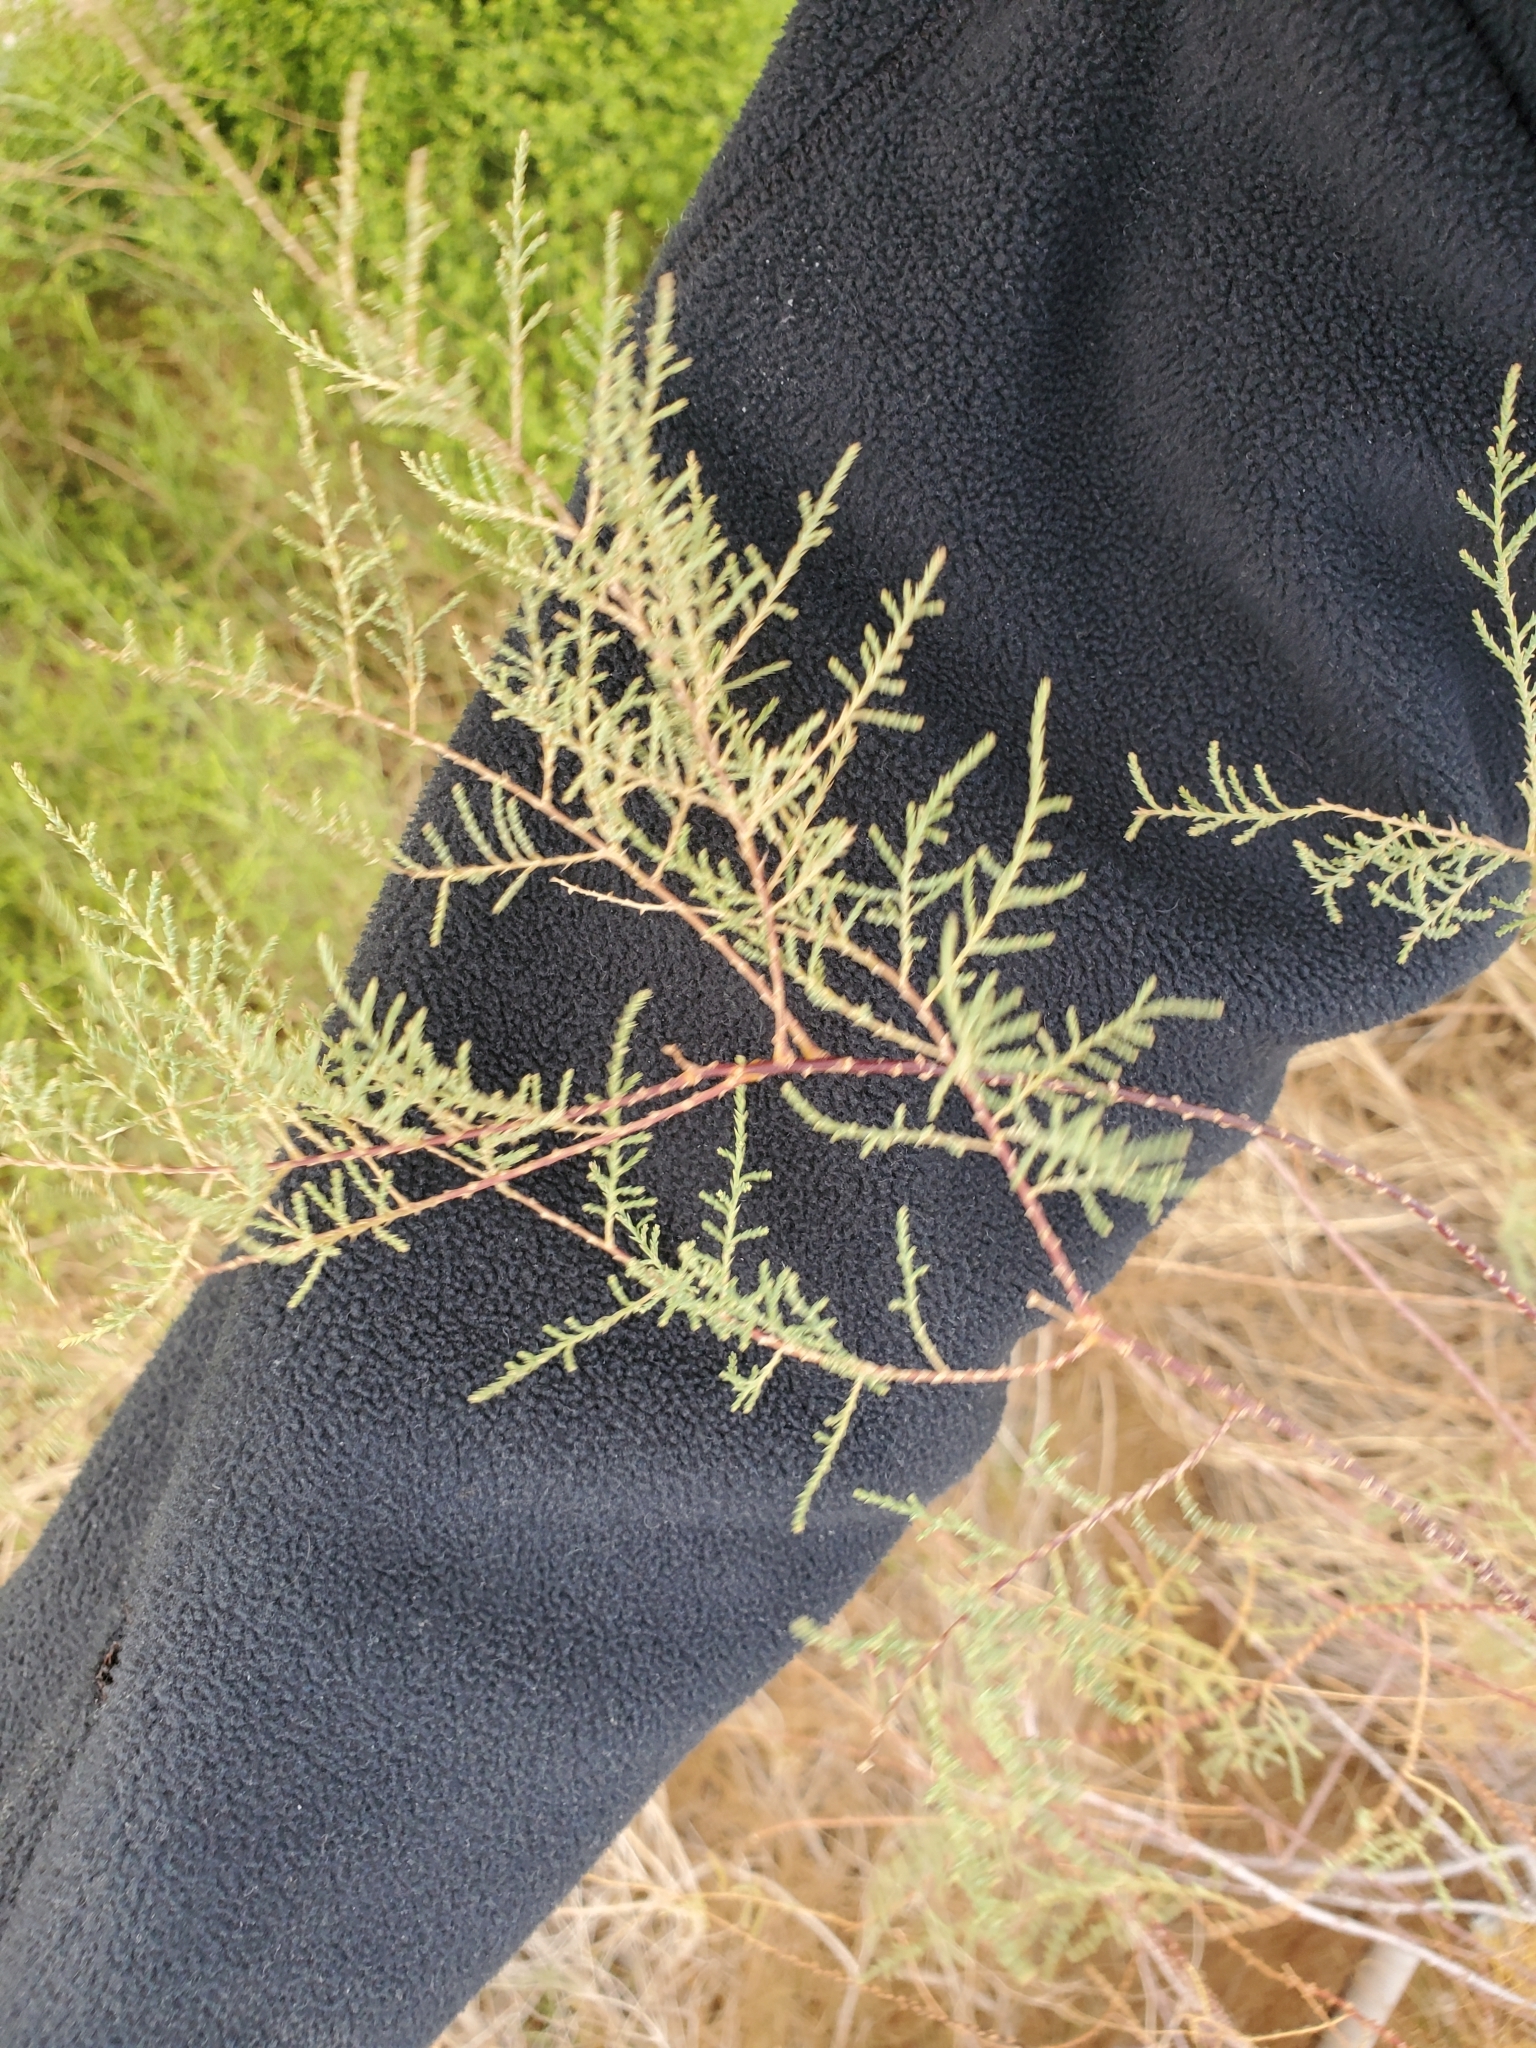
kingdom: Plantae
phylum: Tracheophyta
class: Magnoliopsida
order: Caryophyllales
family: Tamaricaceae
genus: Tamarix
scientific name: Tamarix ramosissima
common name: Pink tamarisk
